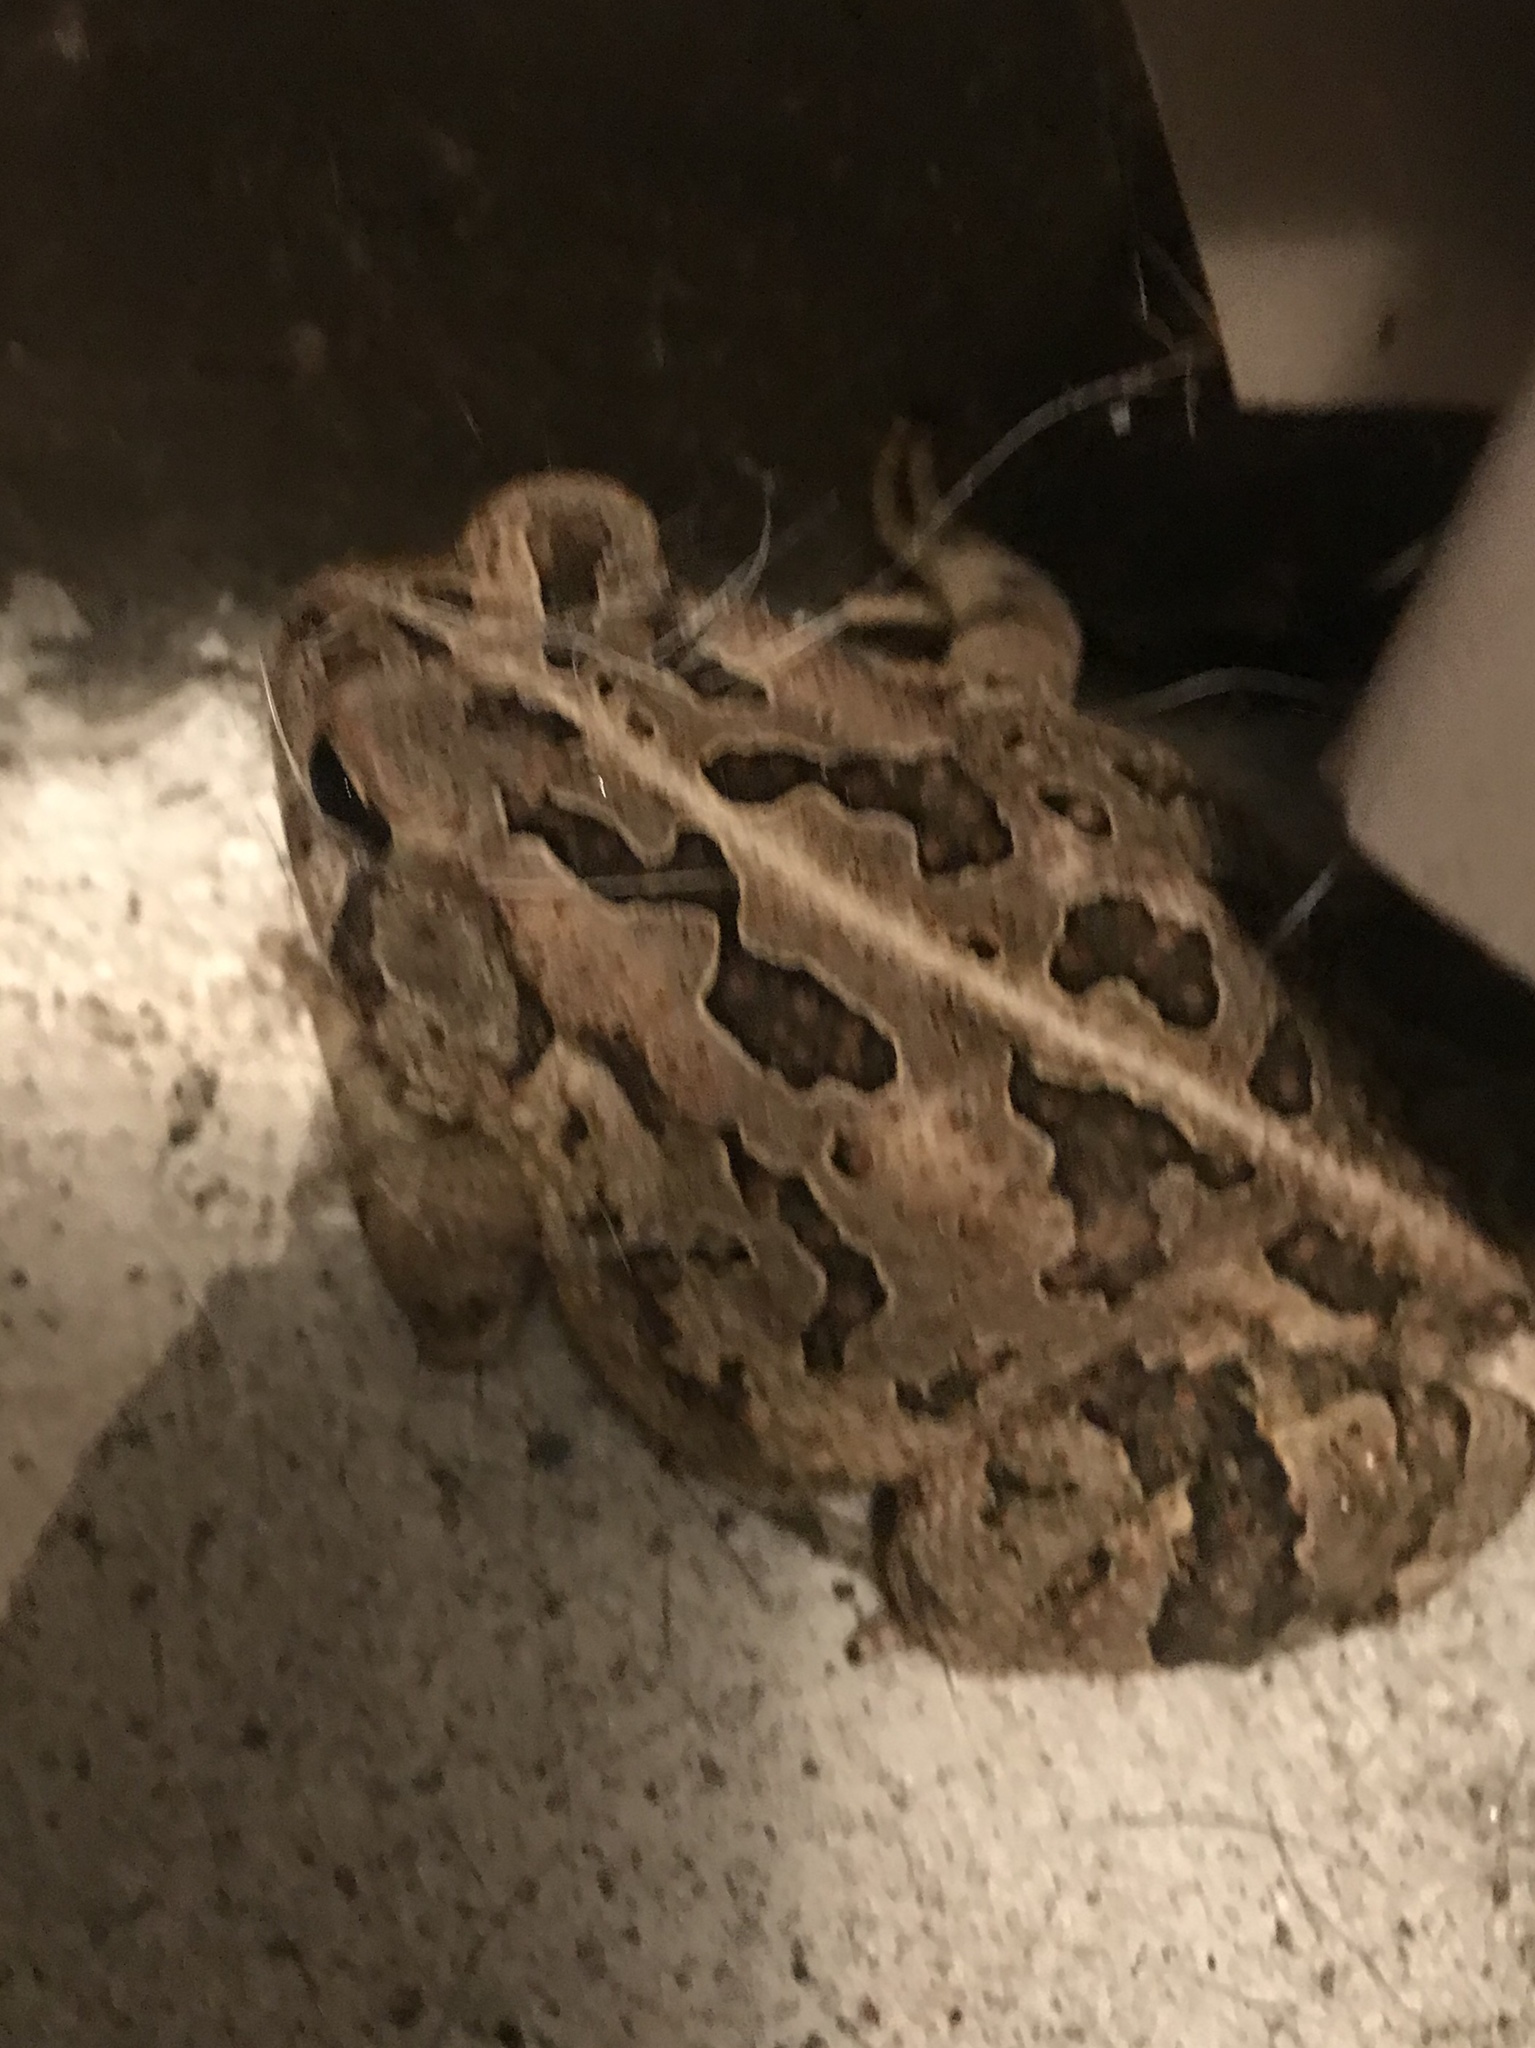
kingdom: Animalia
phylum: Chordata
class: Amphibia
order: Anura
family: Bufonidae
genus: Anaxyrus
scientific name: Anaxyrus fowleri
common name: Fowler's toad
